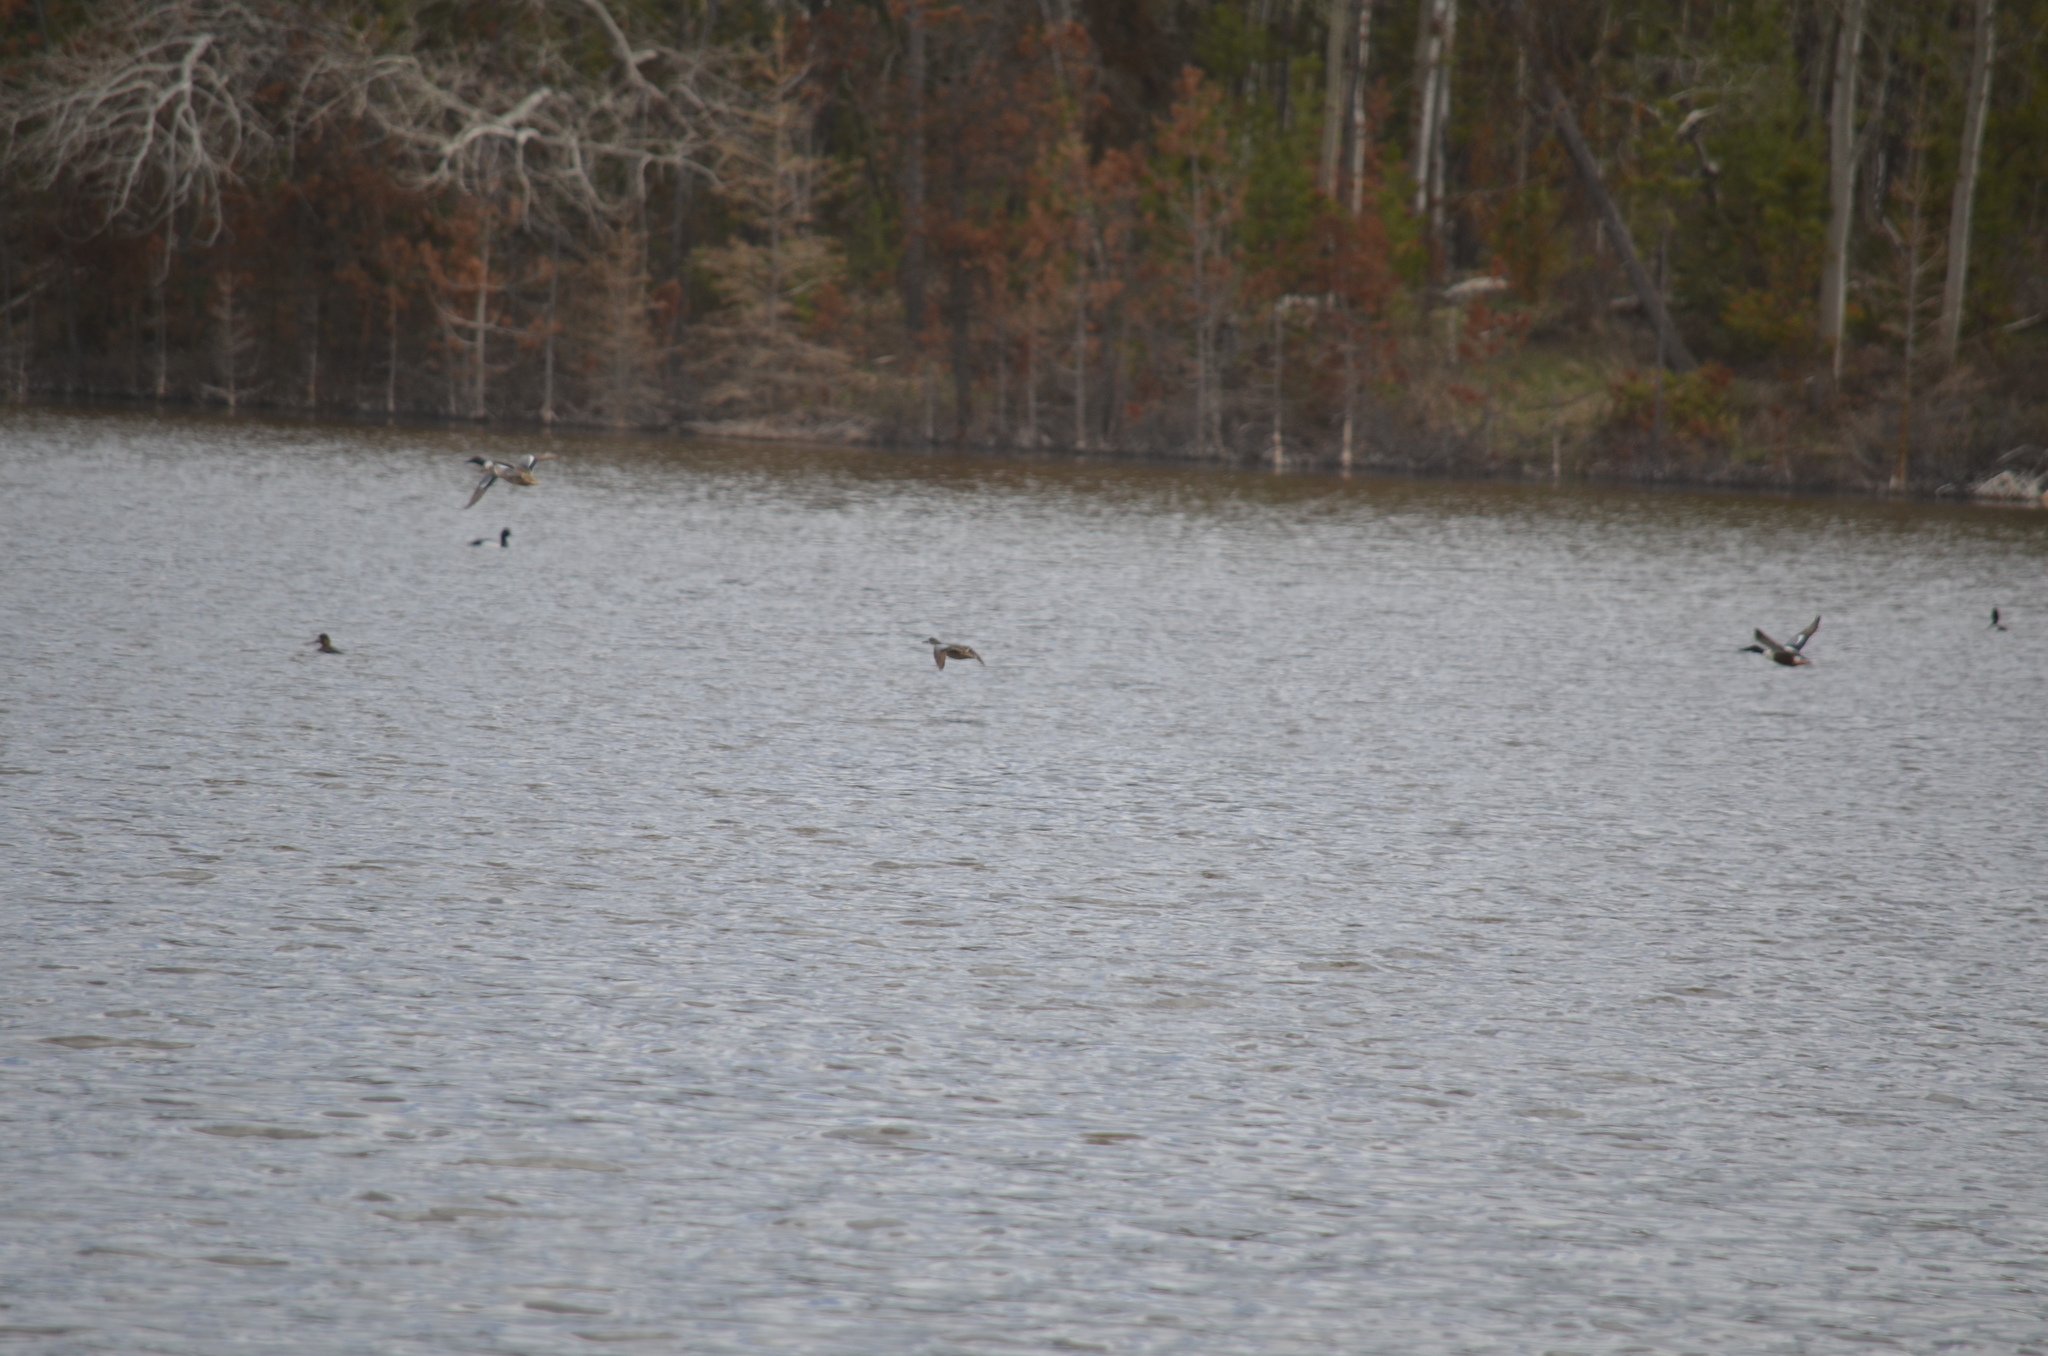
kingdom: Animalia
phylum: Chordata
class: Aves
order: Anseriformes
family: Anatidae
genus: Spatula
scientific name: Spatula discors
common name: Blue-winged teal
